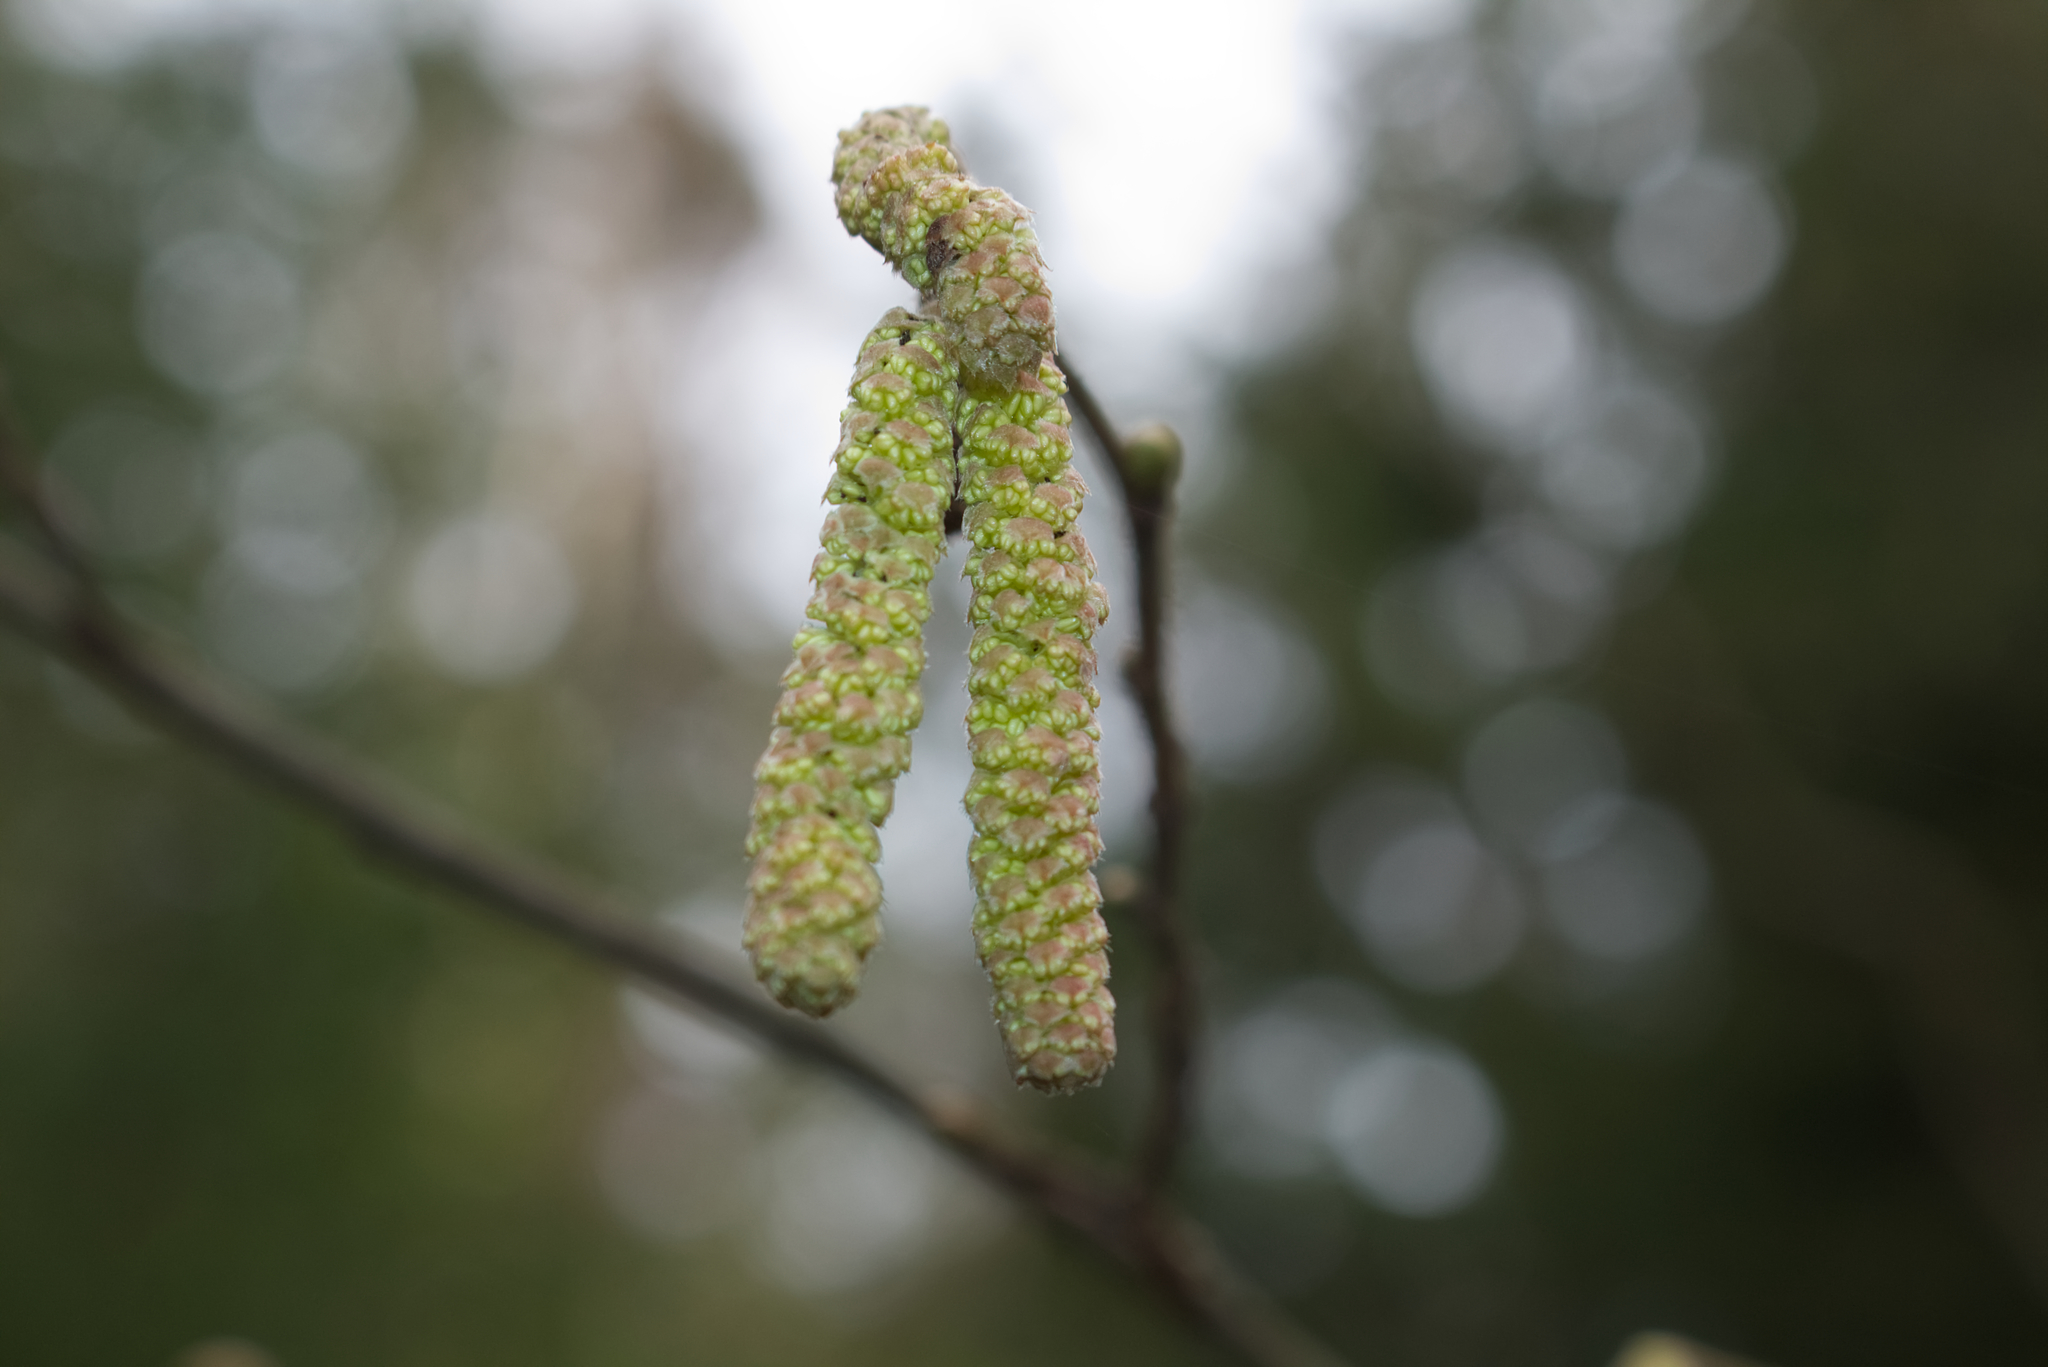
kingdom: Plantae
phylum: Tracheophyta
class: Magnoliopsida
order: Fagales
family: Betulaceae
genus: Corylus
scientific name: Corylus avellana
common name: European hazel
